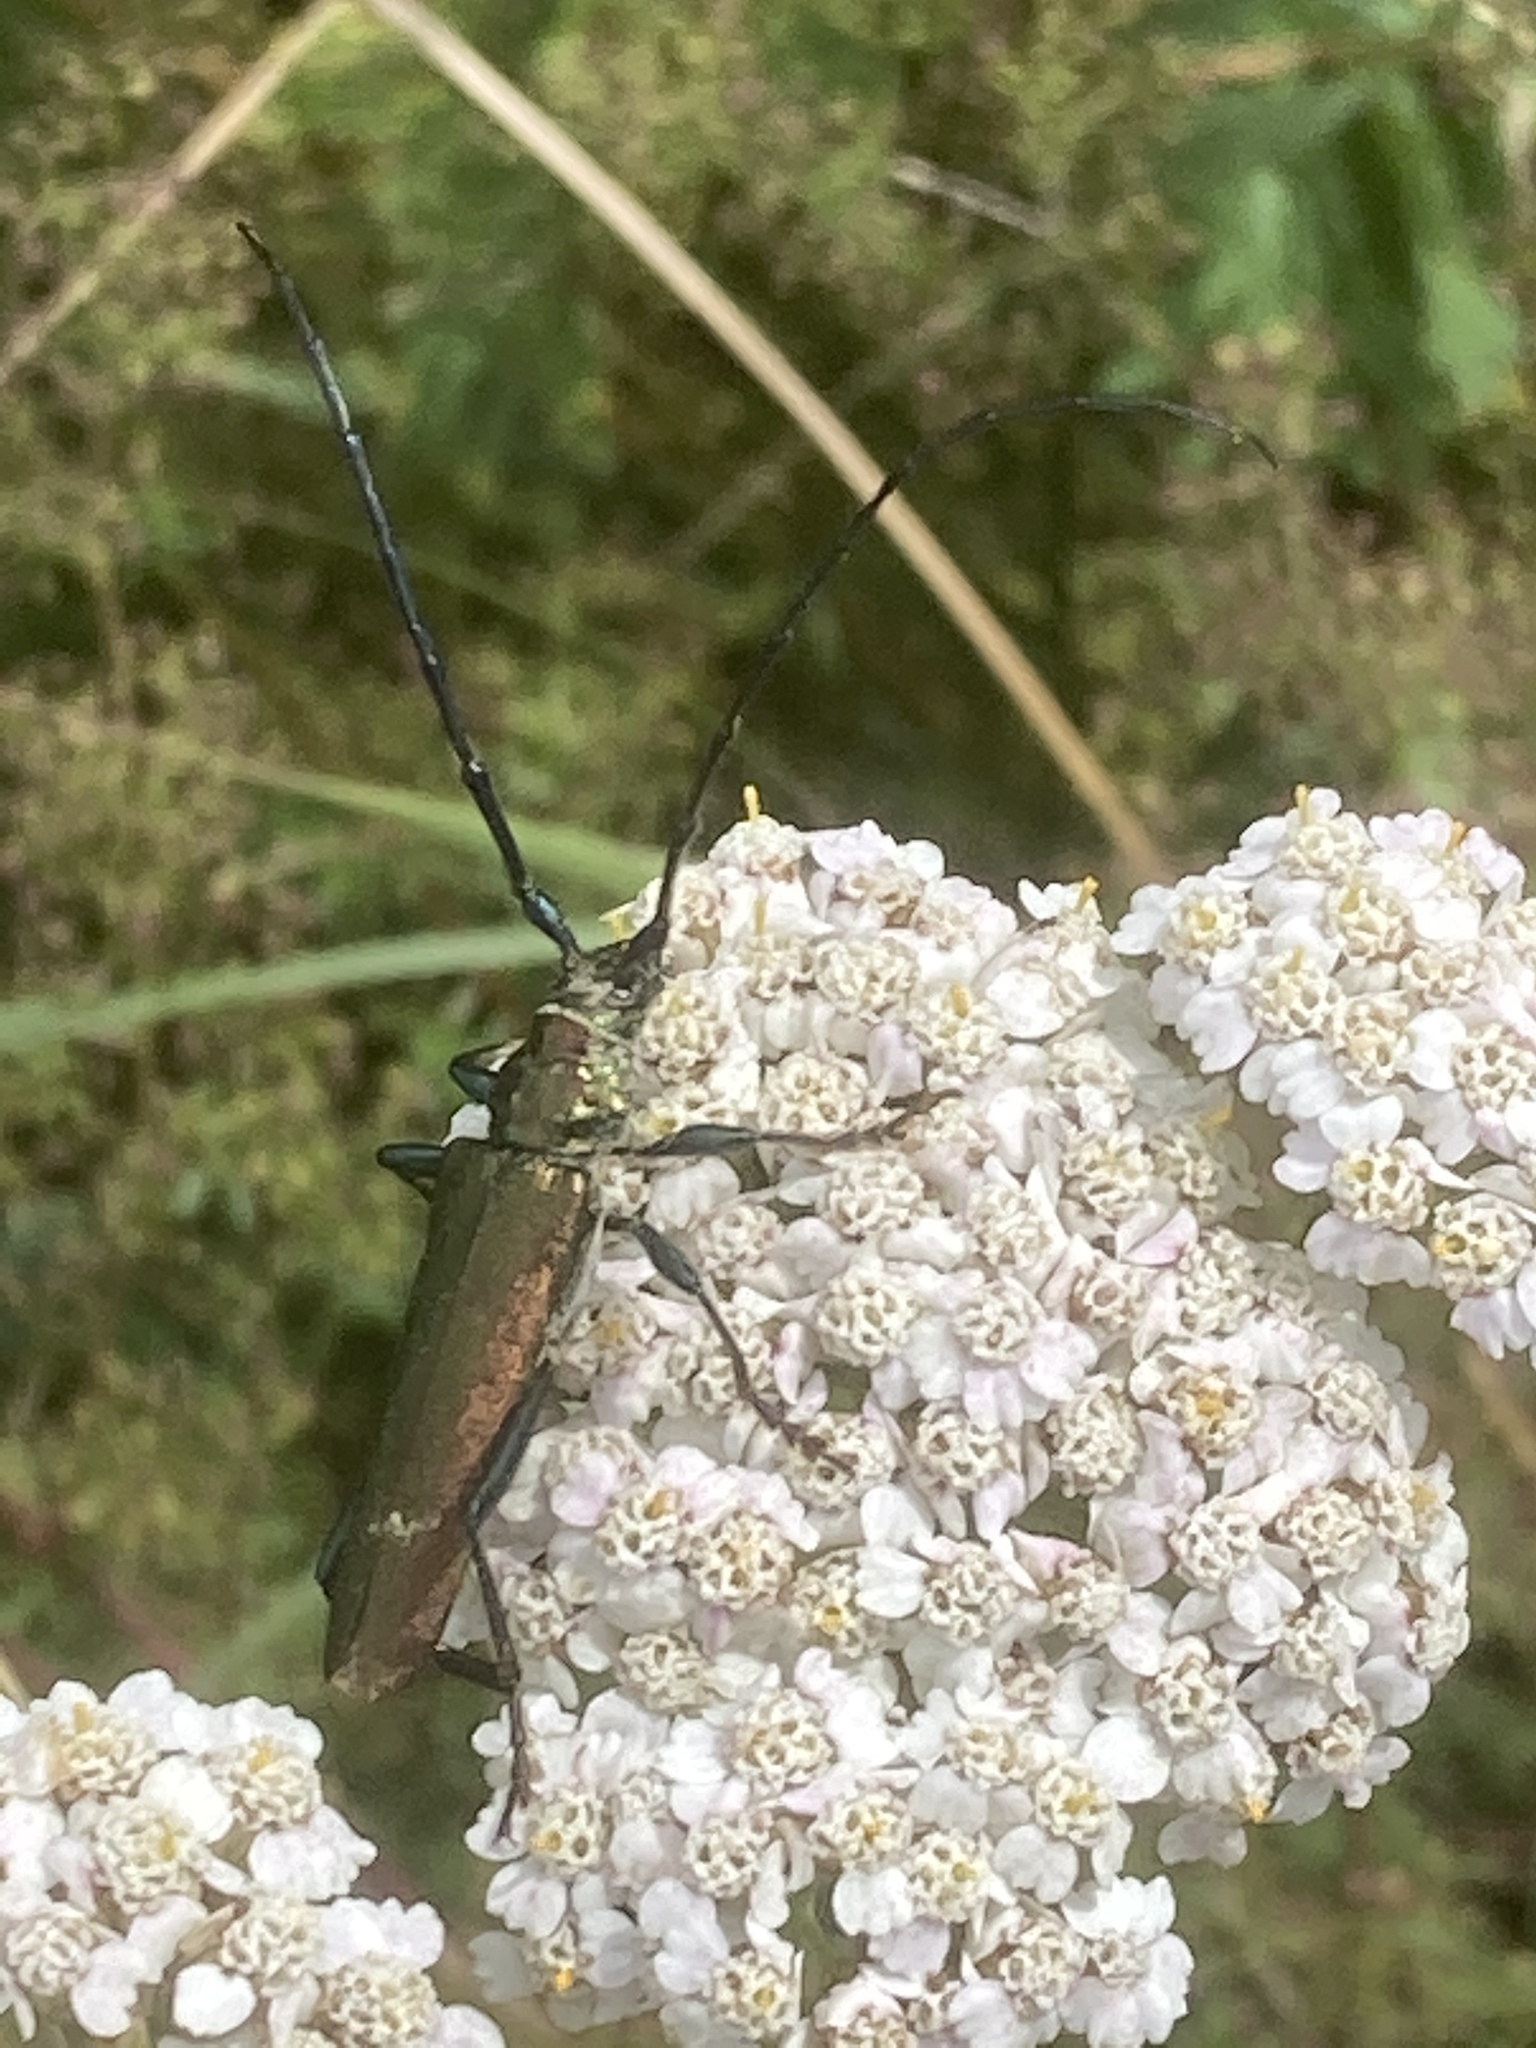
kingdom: Animalia
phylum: Arthropoda
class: Insecta
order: Coleoptera
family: Cerambycidae
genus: Aromia
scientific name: Aromia moschata
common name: Musk beetle
